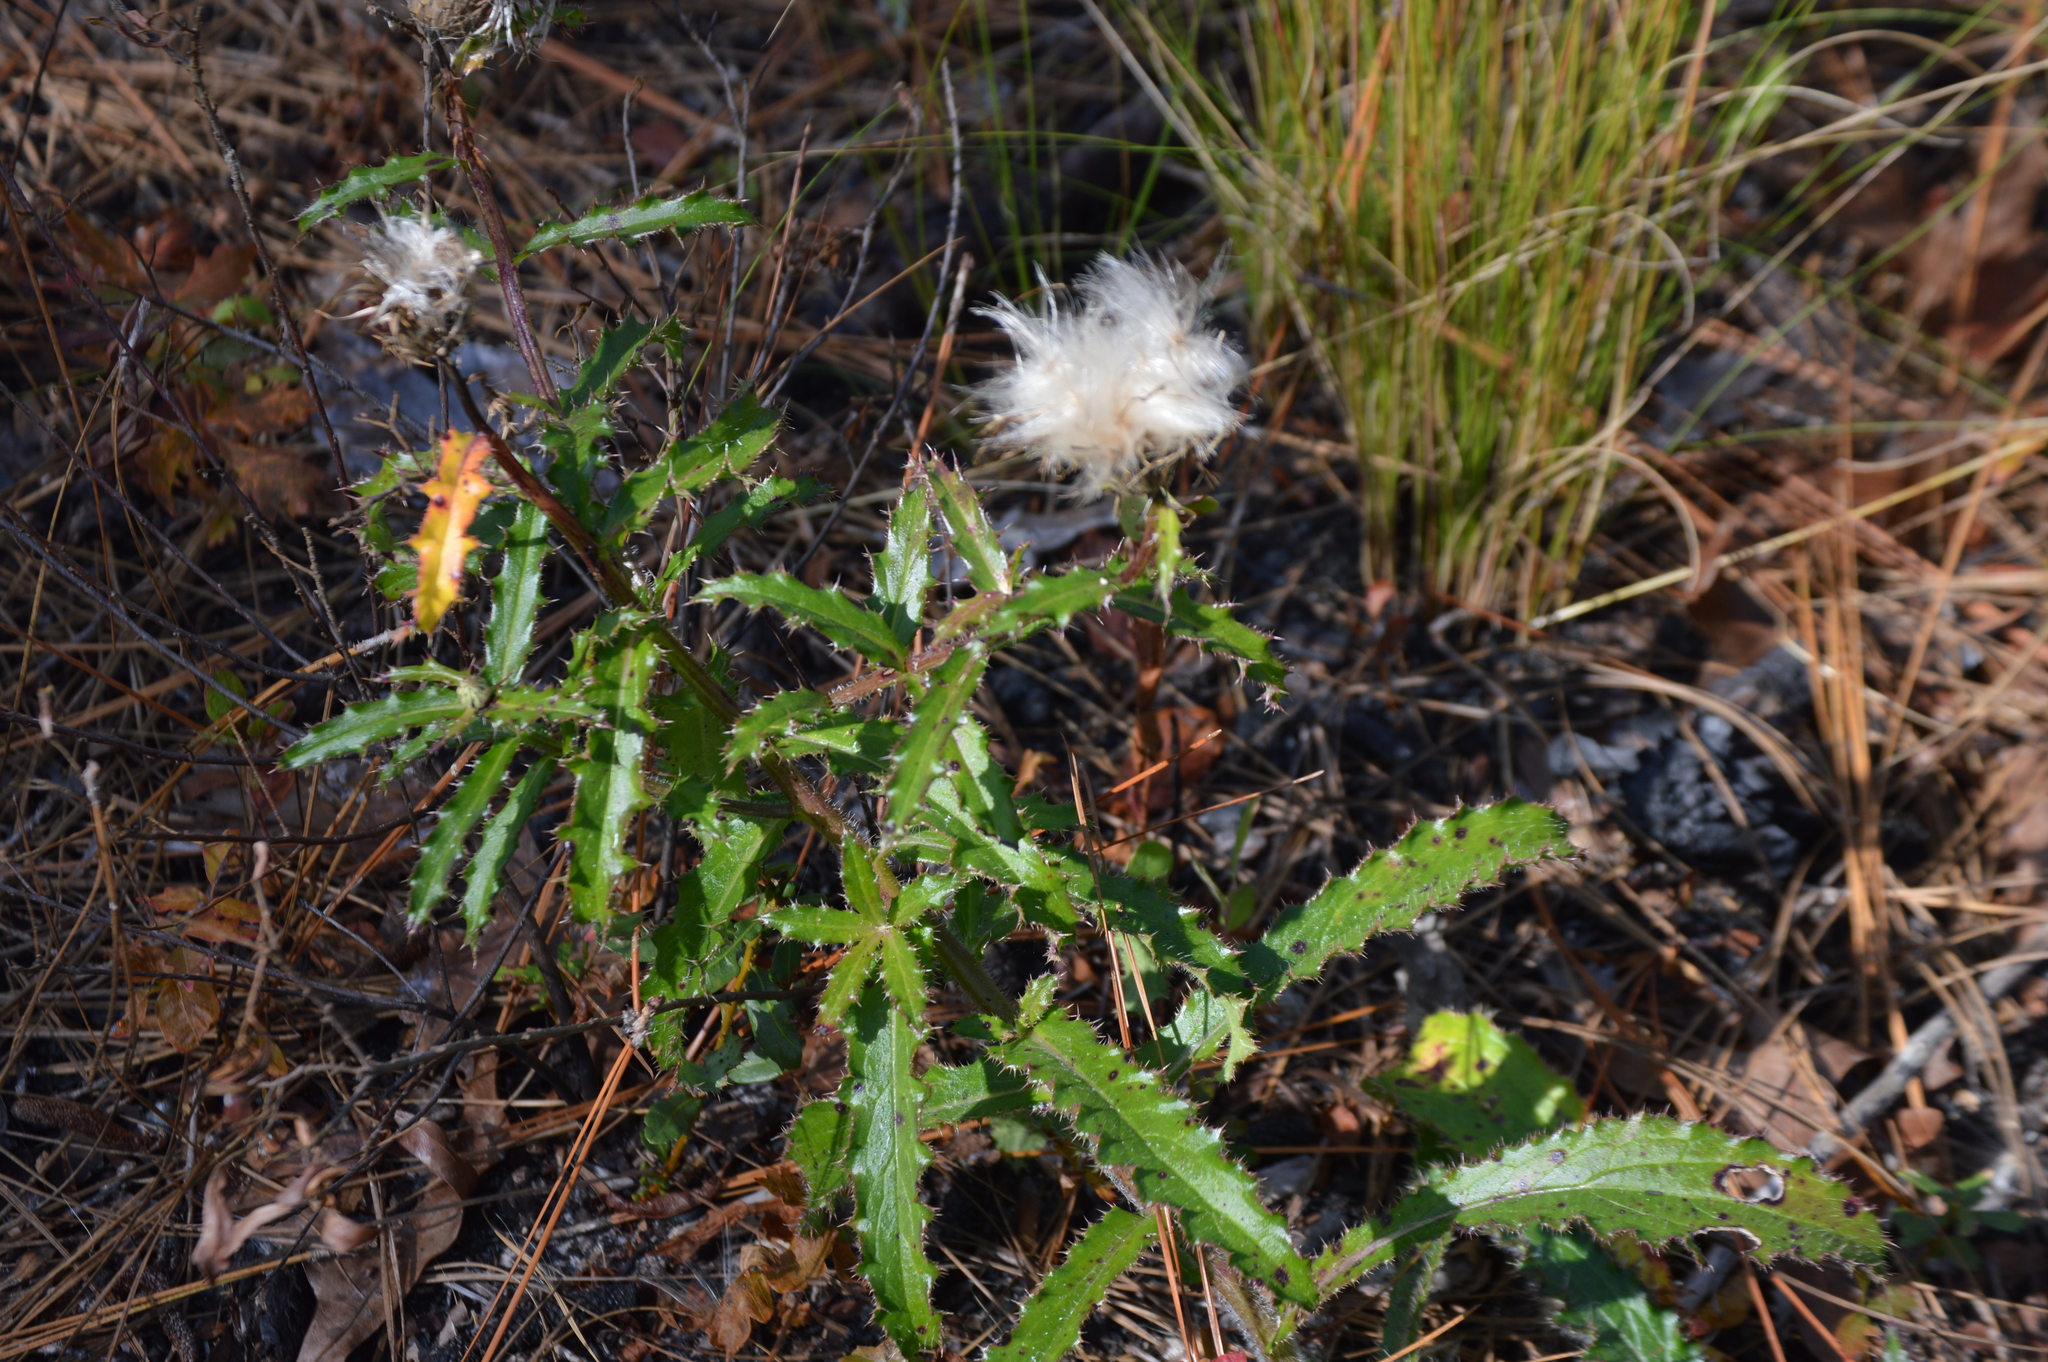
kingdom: Plantae
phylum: Tracheophyta
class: Magnoliopsida
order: Asterales
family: Asteraceae
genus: Cirsium
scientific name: Cirsium repandum
